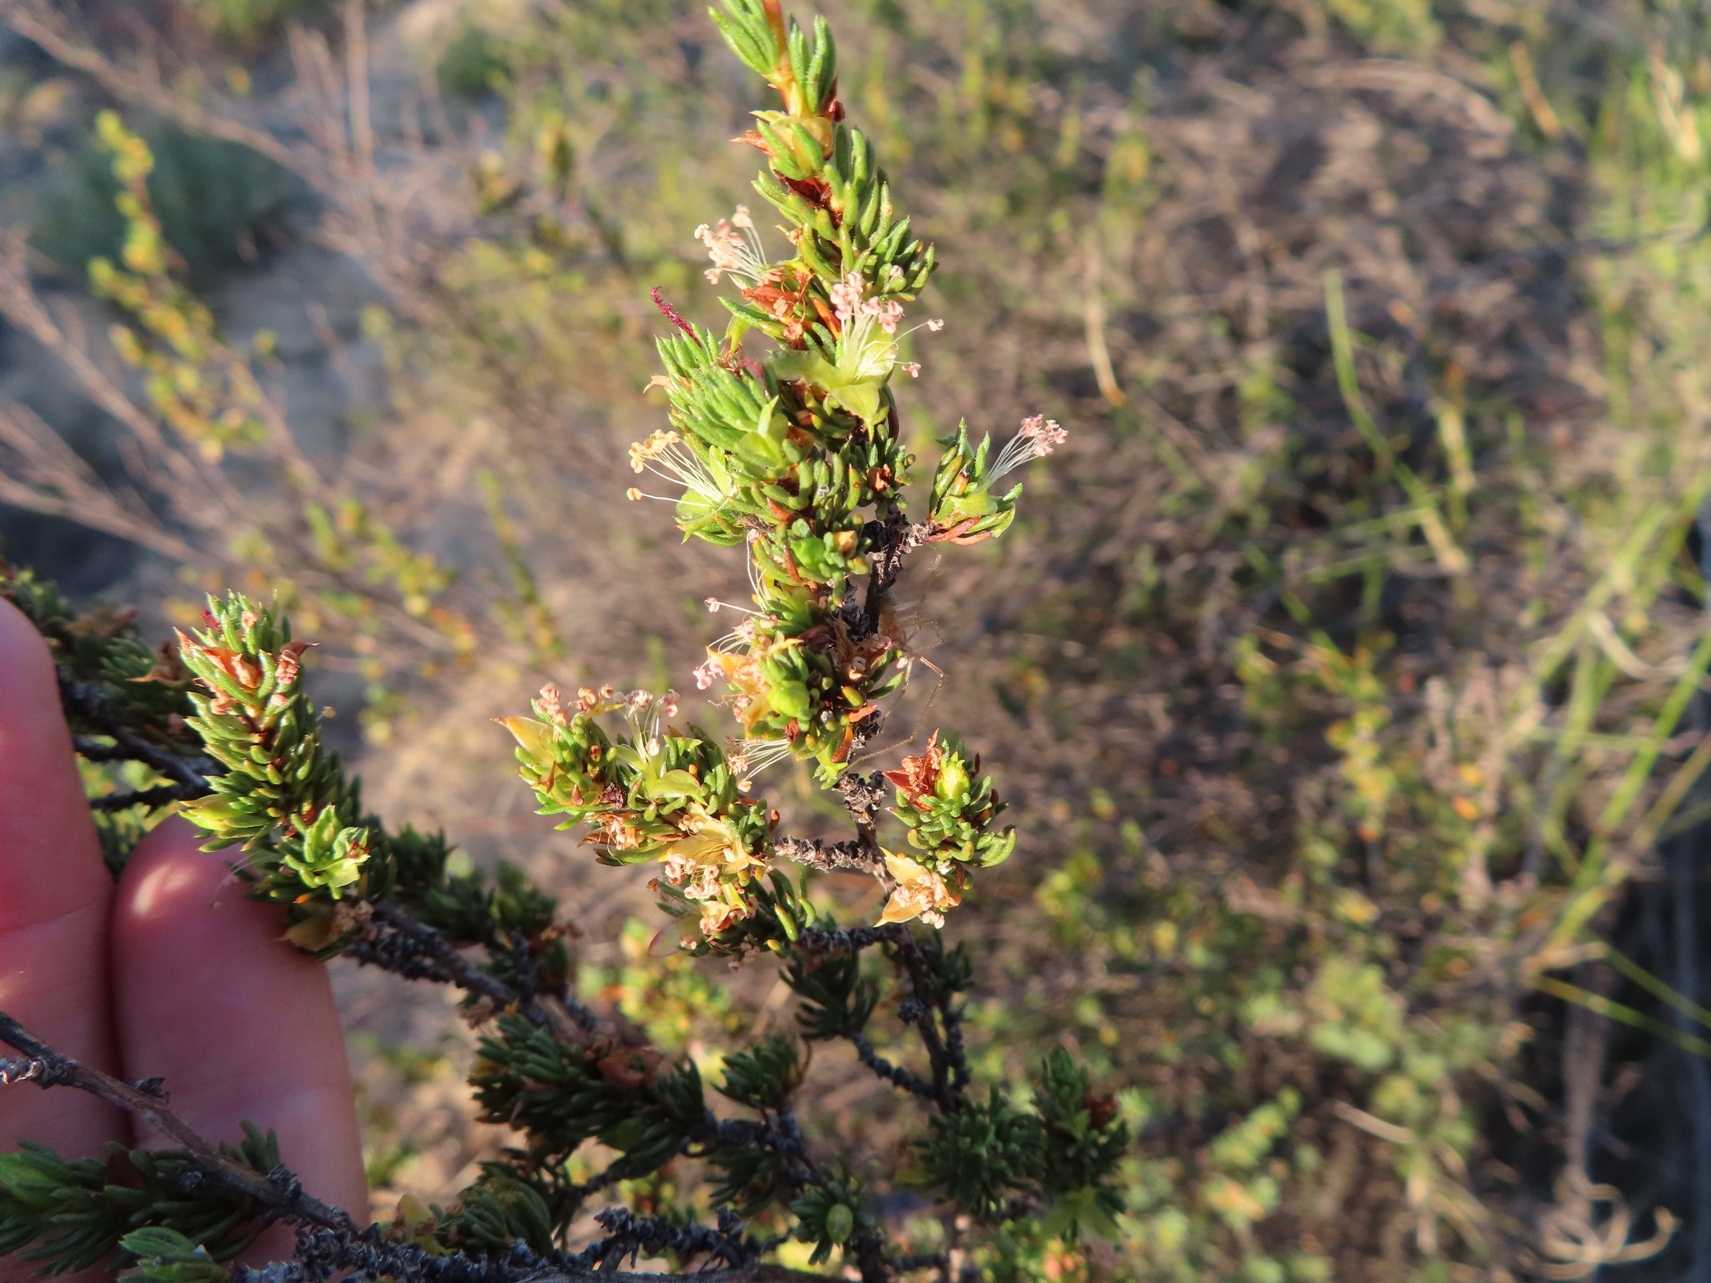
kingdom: Plantae
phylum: Tracheophyta
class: Magnoliopsida
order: Rosales
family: Rosaceae
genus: Cliffortia
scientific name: Cliffortia teretifolia
